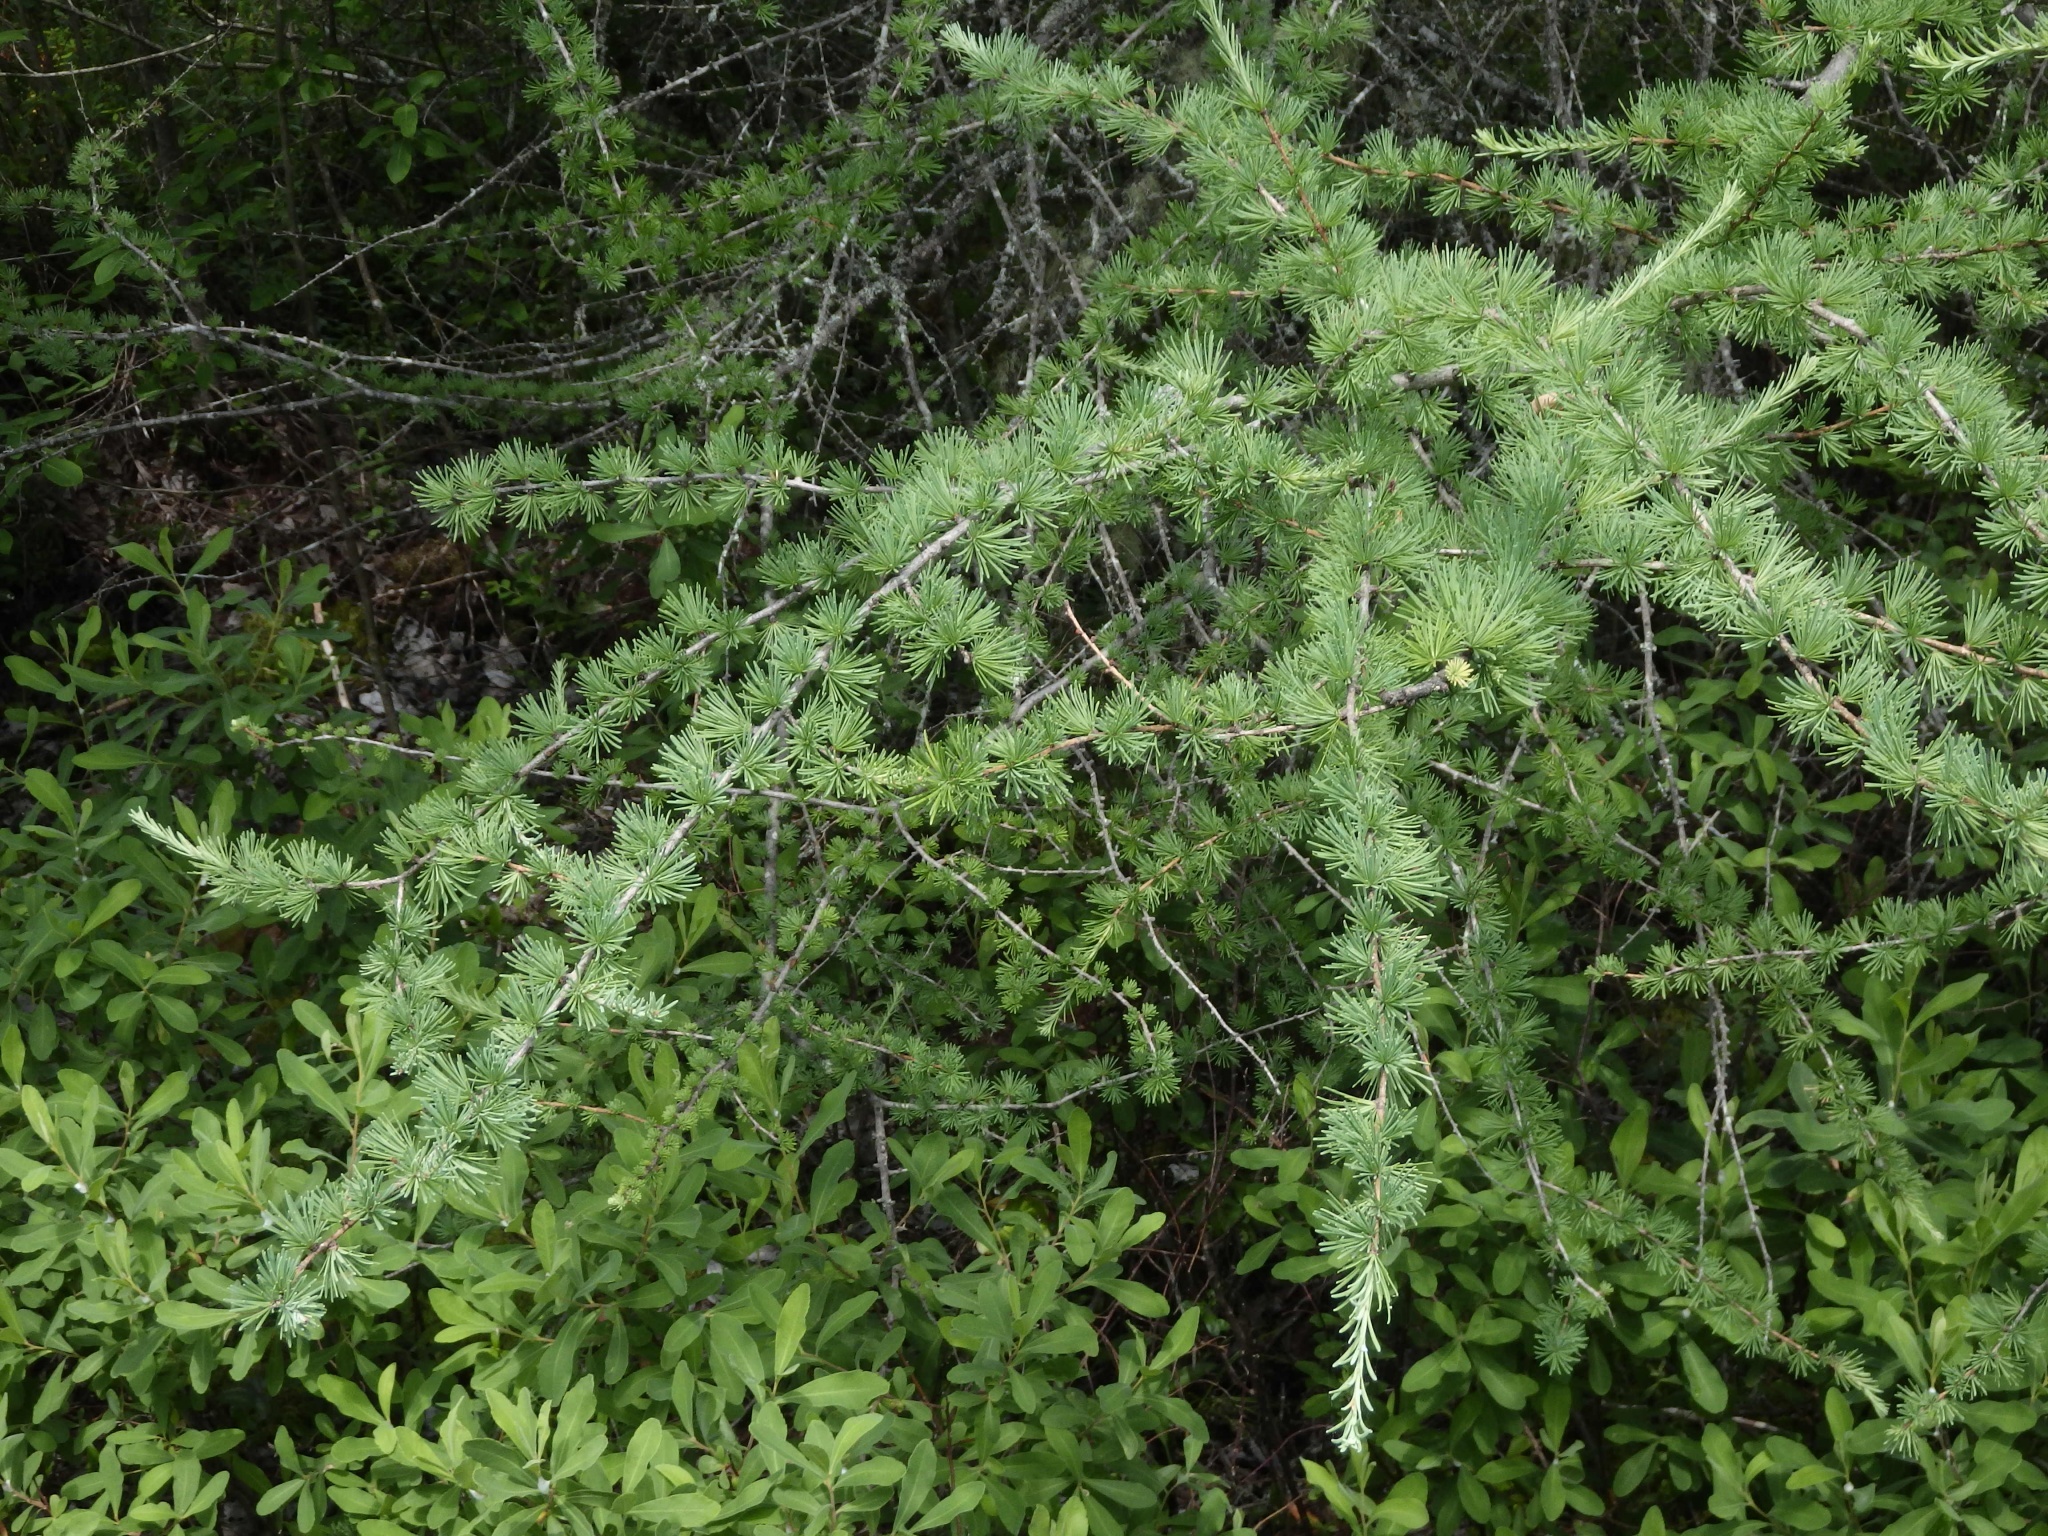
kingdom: Plantae
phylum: Tracheophyta
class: Pinopsida
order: Pinales
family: Pinaceae
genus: Larix
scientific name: Larix laricina
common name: American larch
